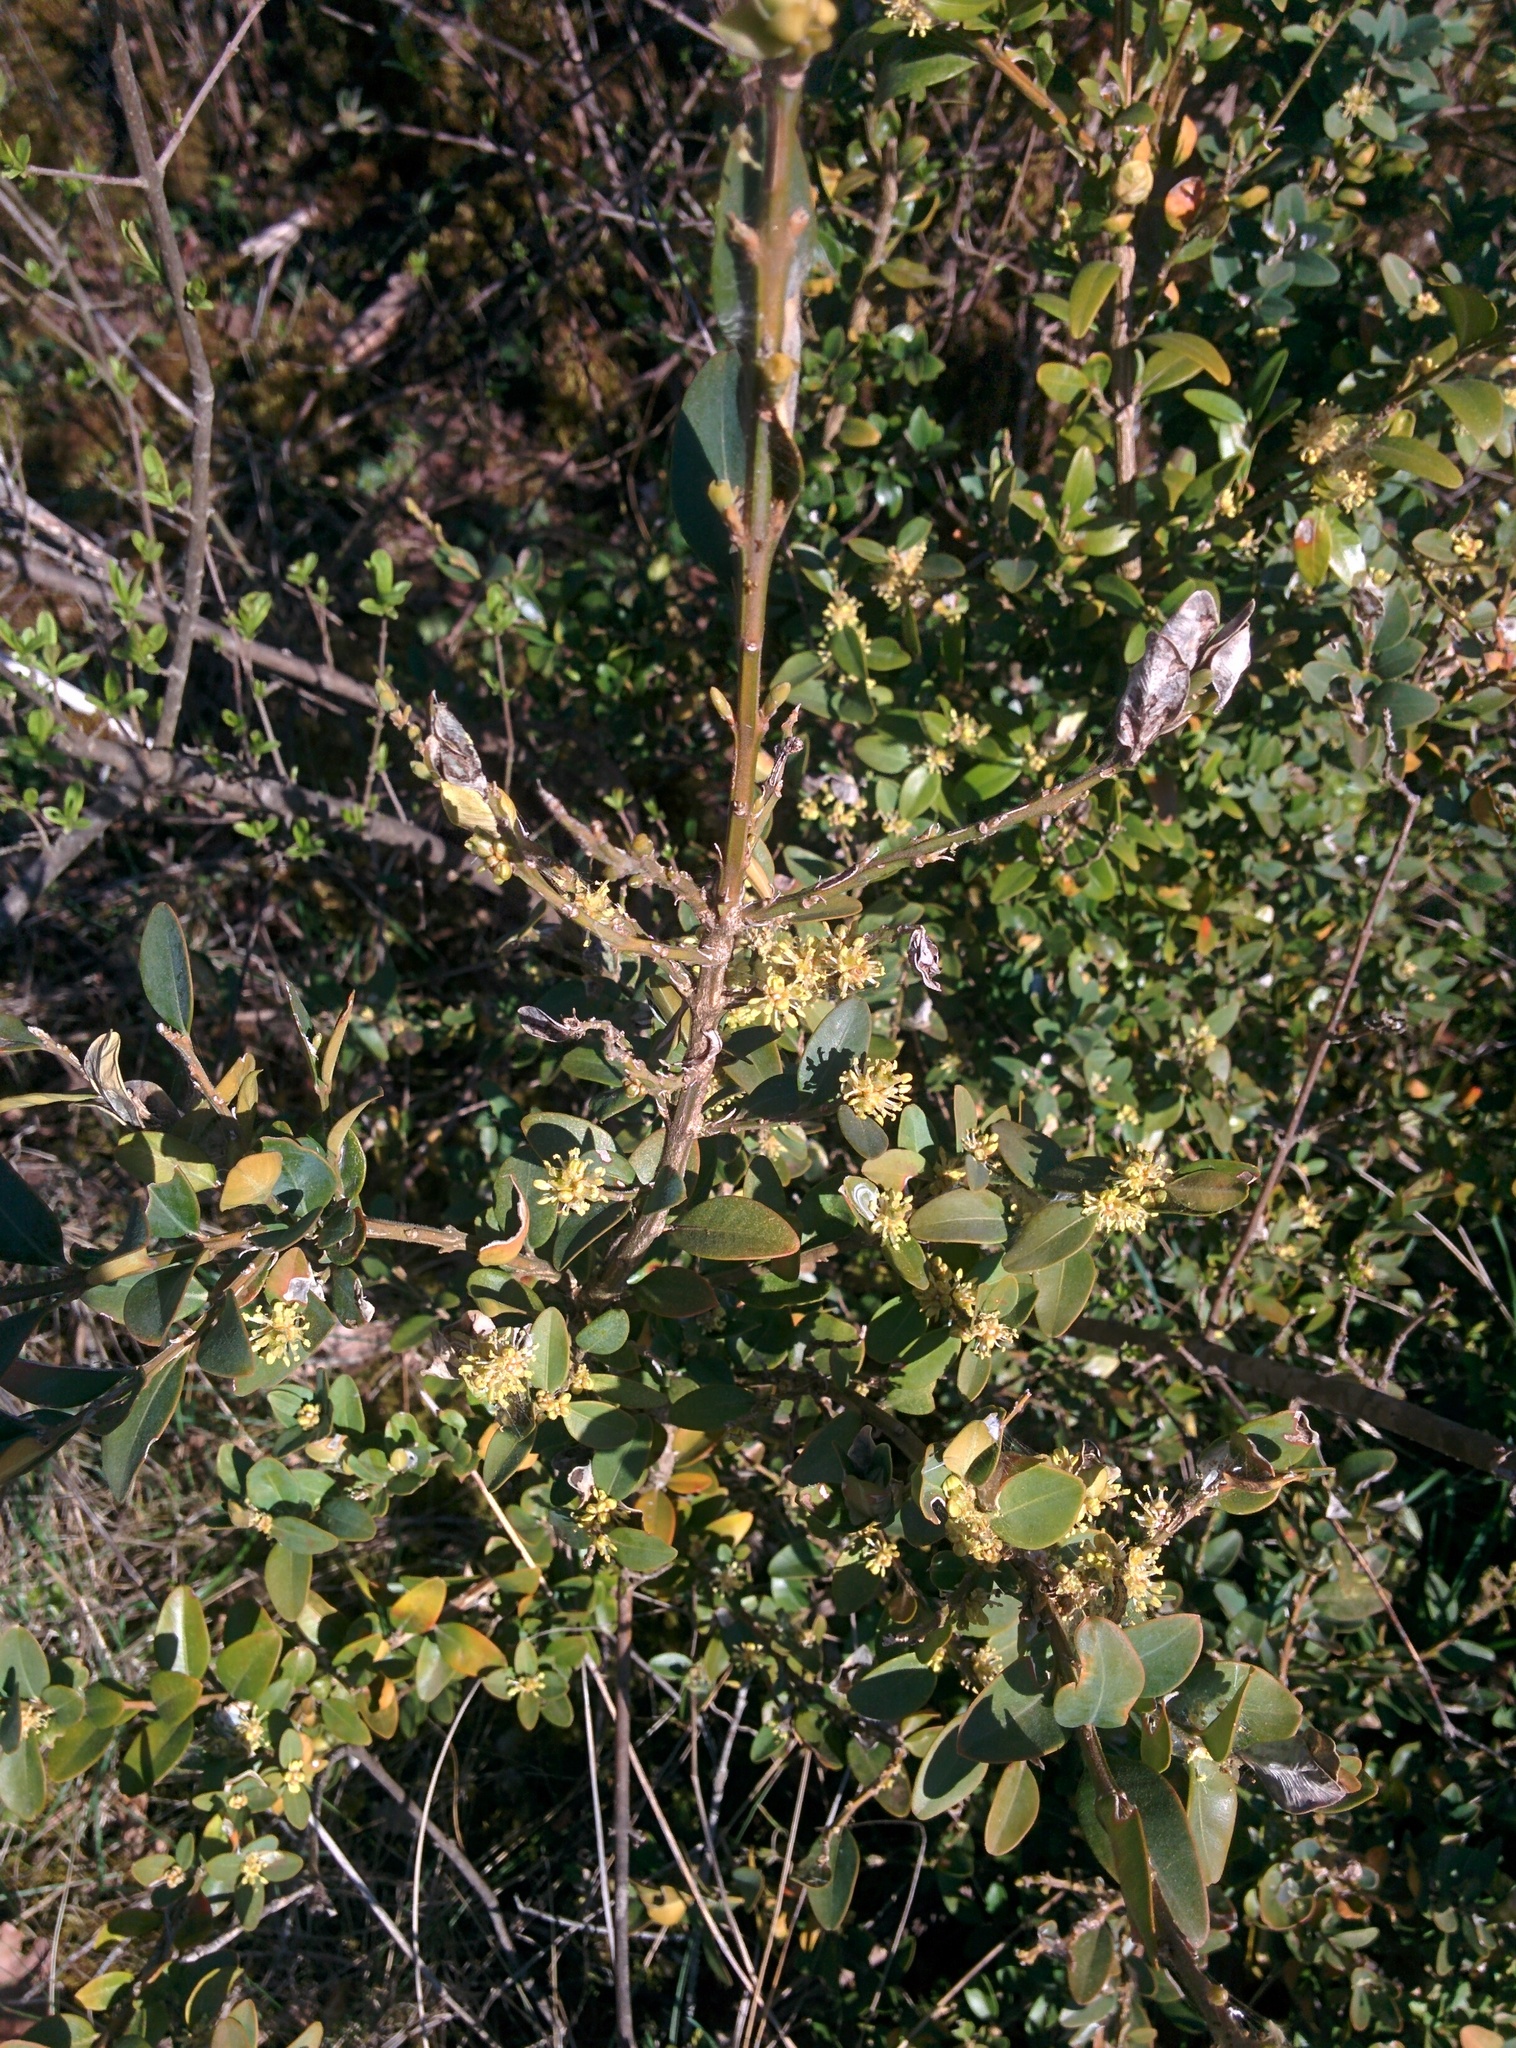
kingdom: Plantae
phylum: Tracheophyta
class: Magnoliopsida
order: Buxales
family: Buxaceae
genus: Buxus
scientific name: Buxus sempervirens
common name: Box
